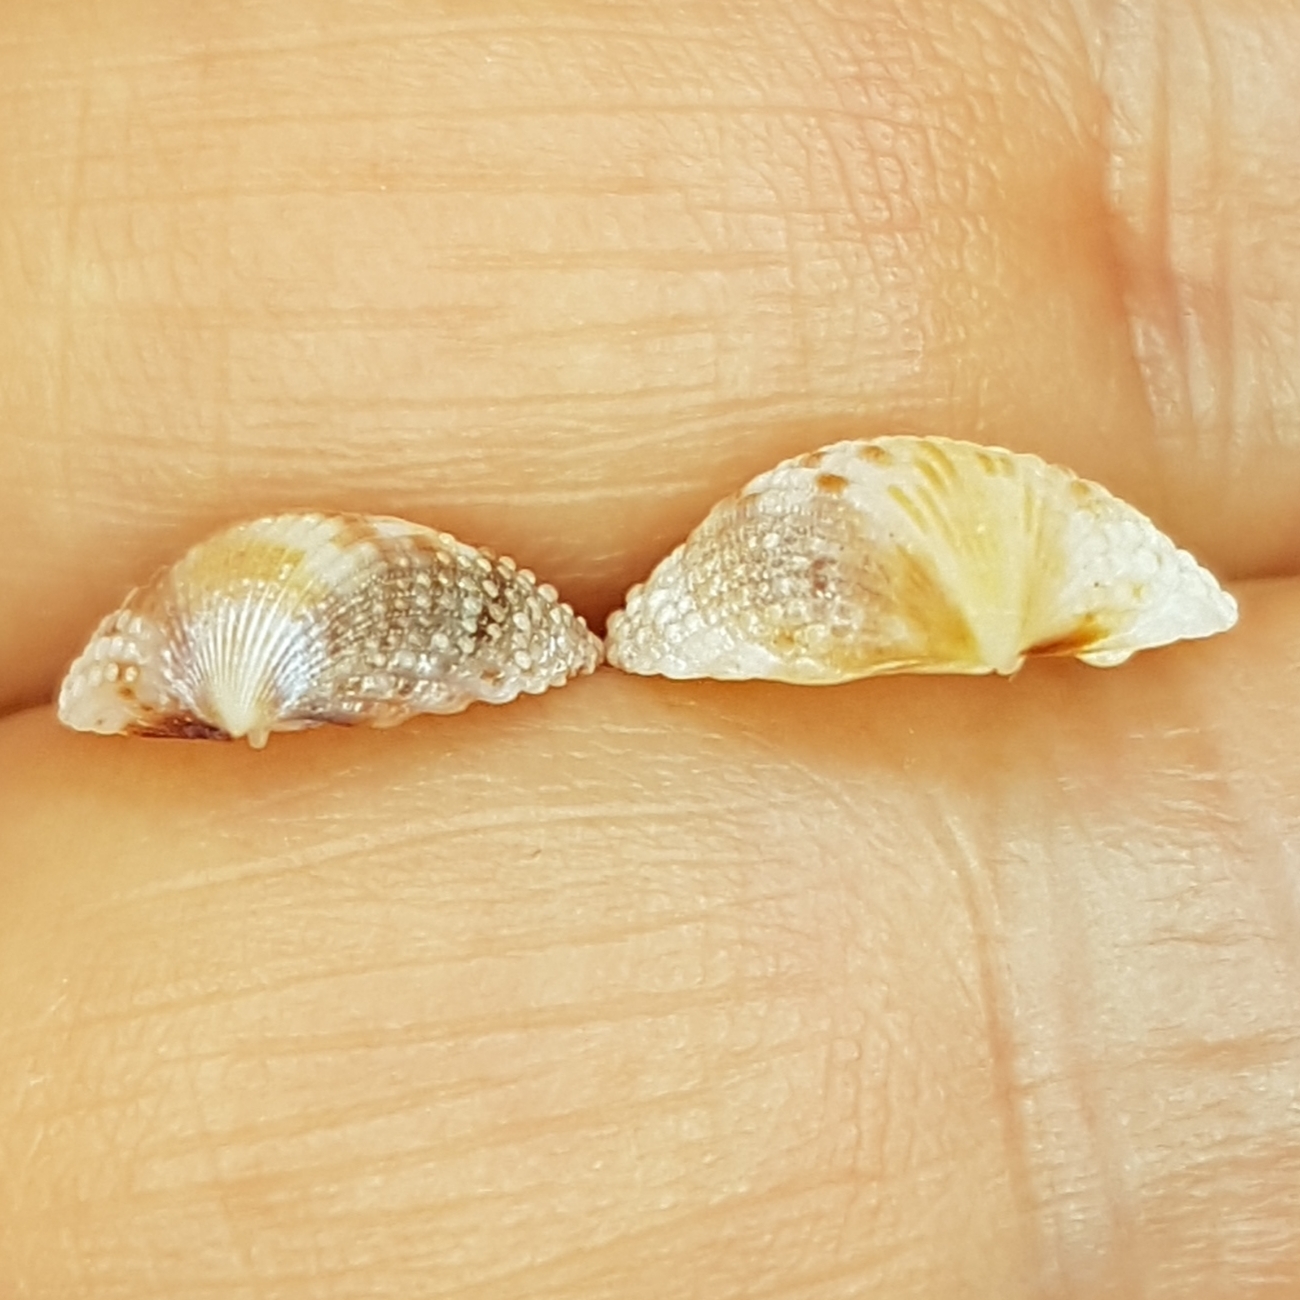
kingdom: Animalia
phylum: Mollusca
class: Bivalvia
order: Cardiida
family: Cardiidae
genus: Papillicardium
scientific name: Papillicardium papillosum
